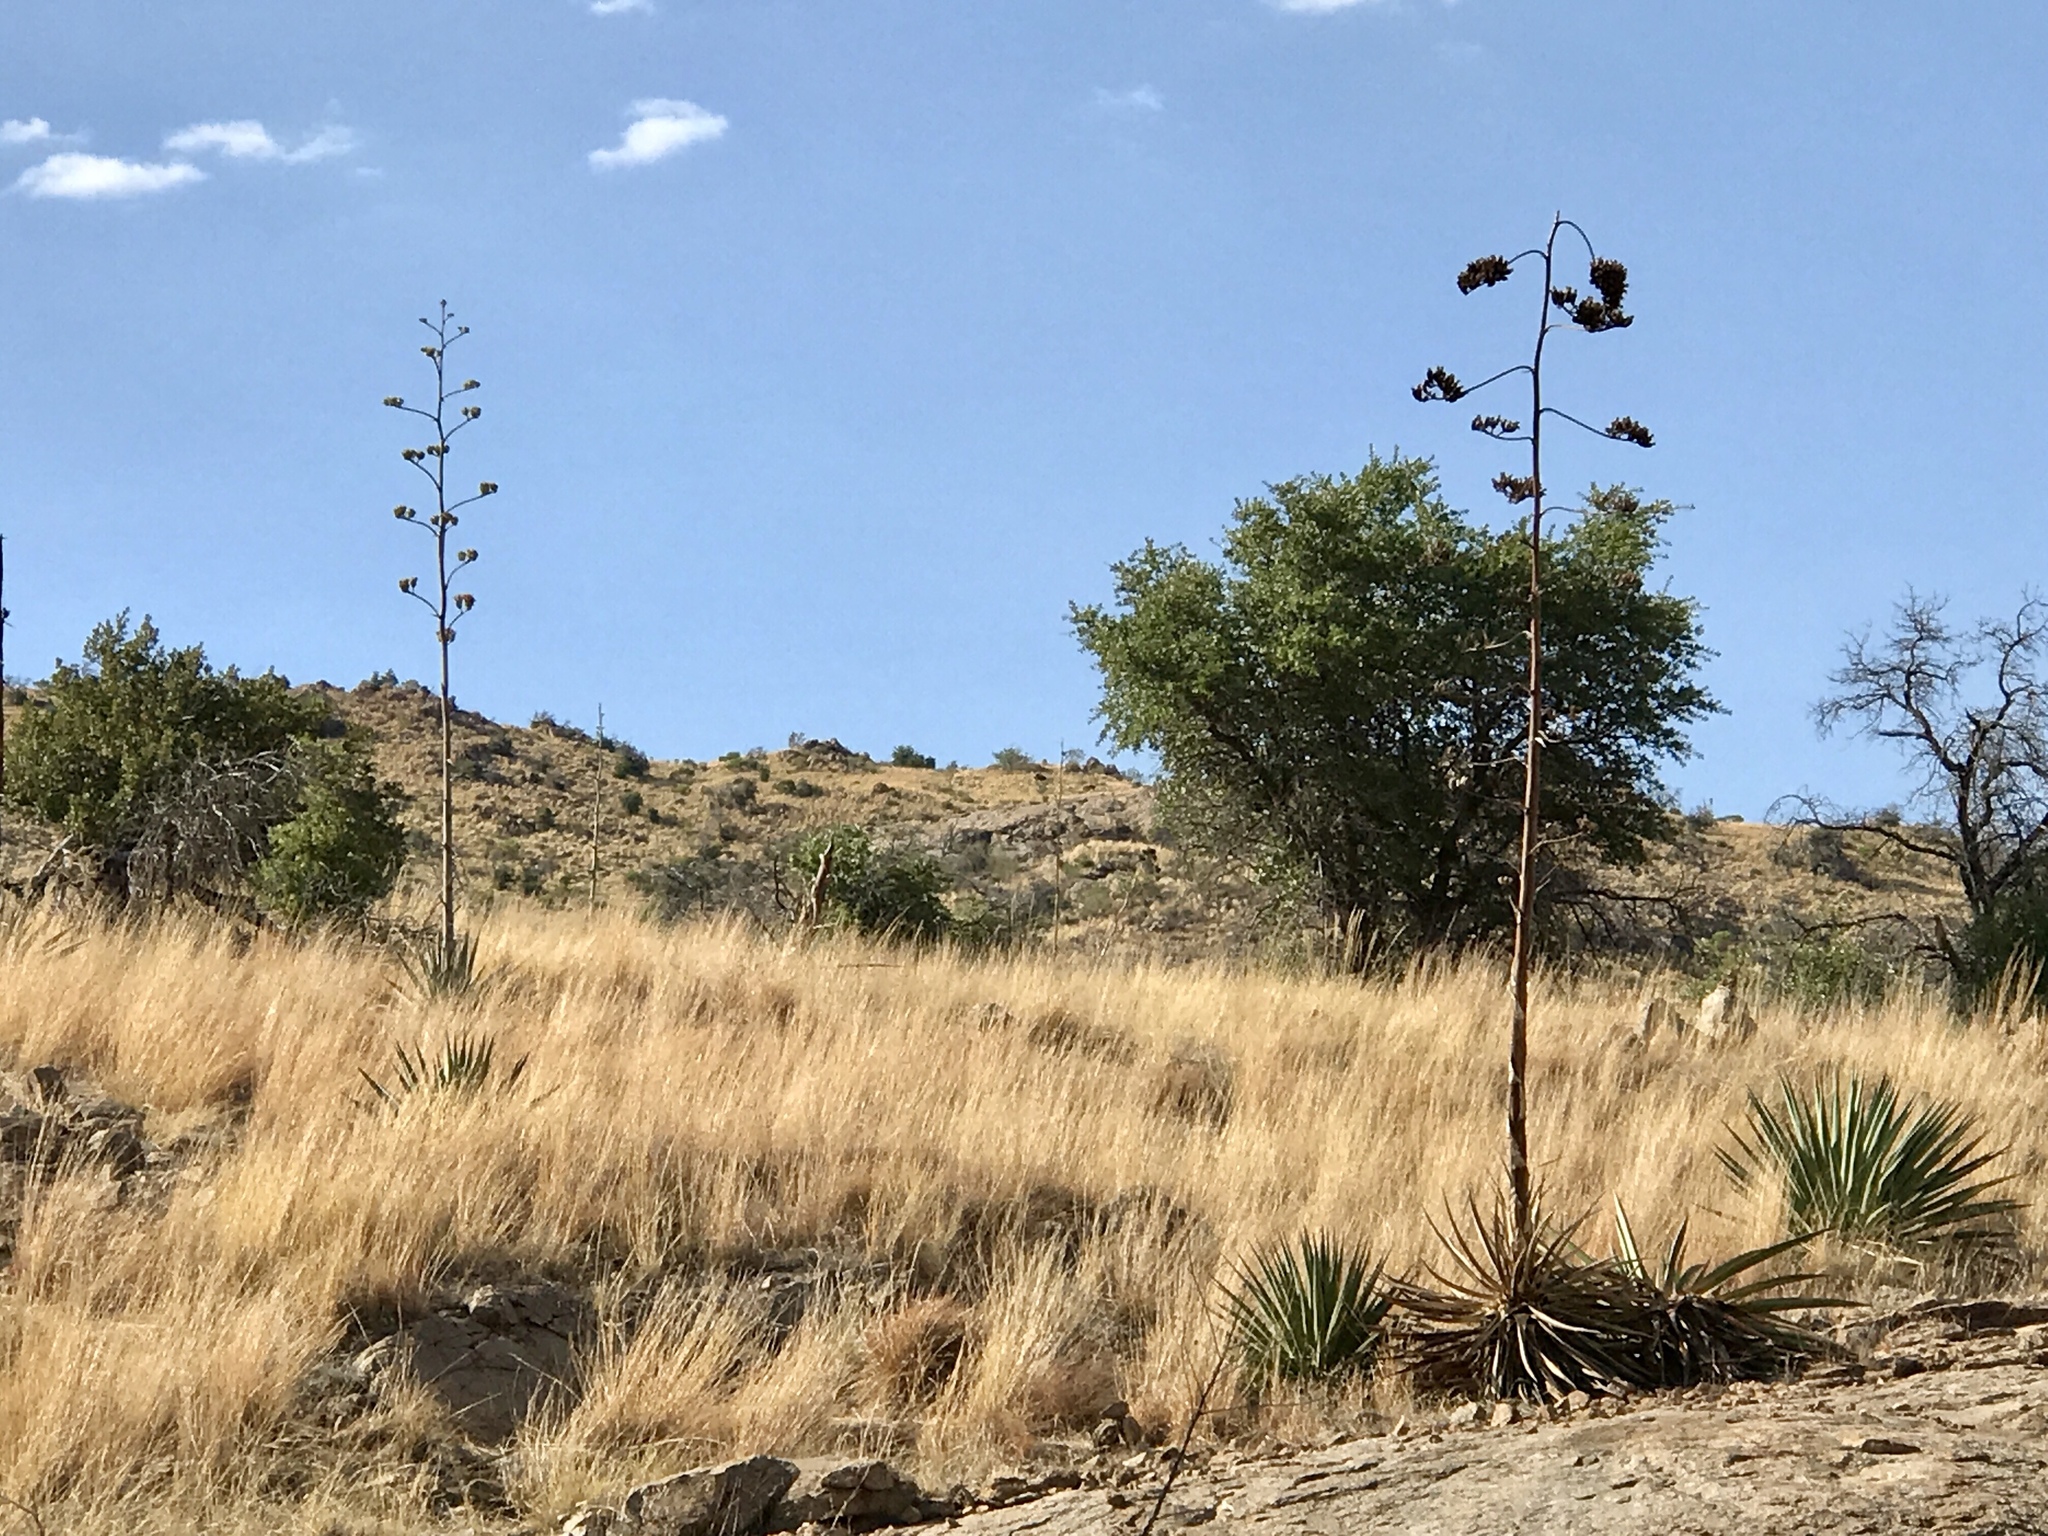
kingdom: Plantae
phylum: Tracheophyta
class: Liliopsida
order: Asparagales
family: Asparagaceae
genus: Agave
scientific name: Agave palmeri
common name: Palmer agave
